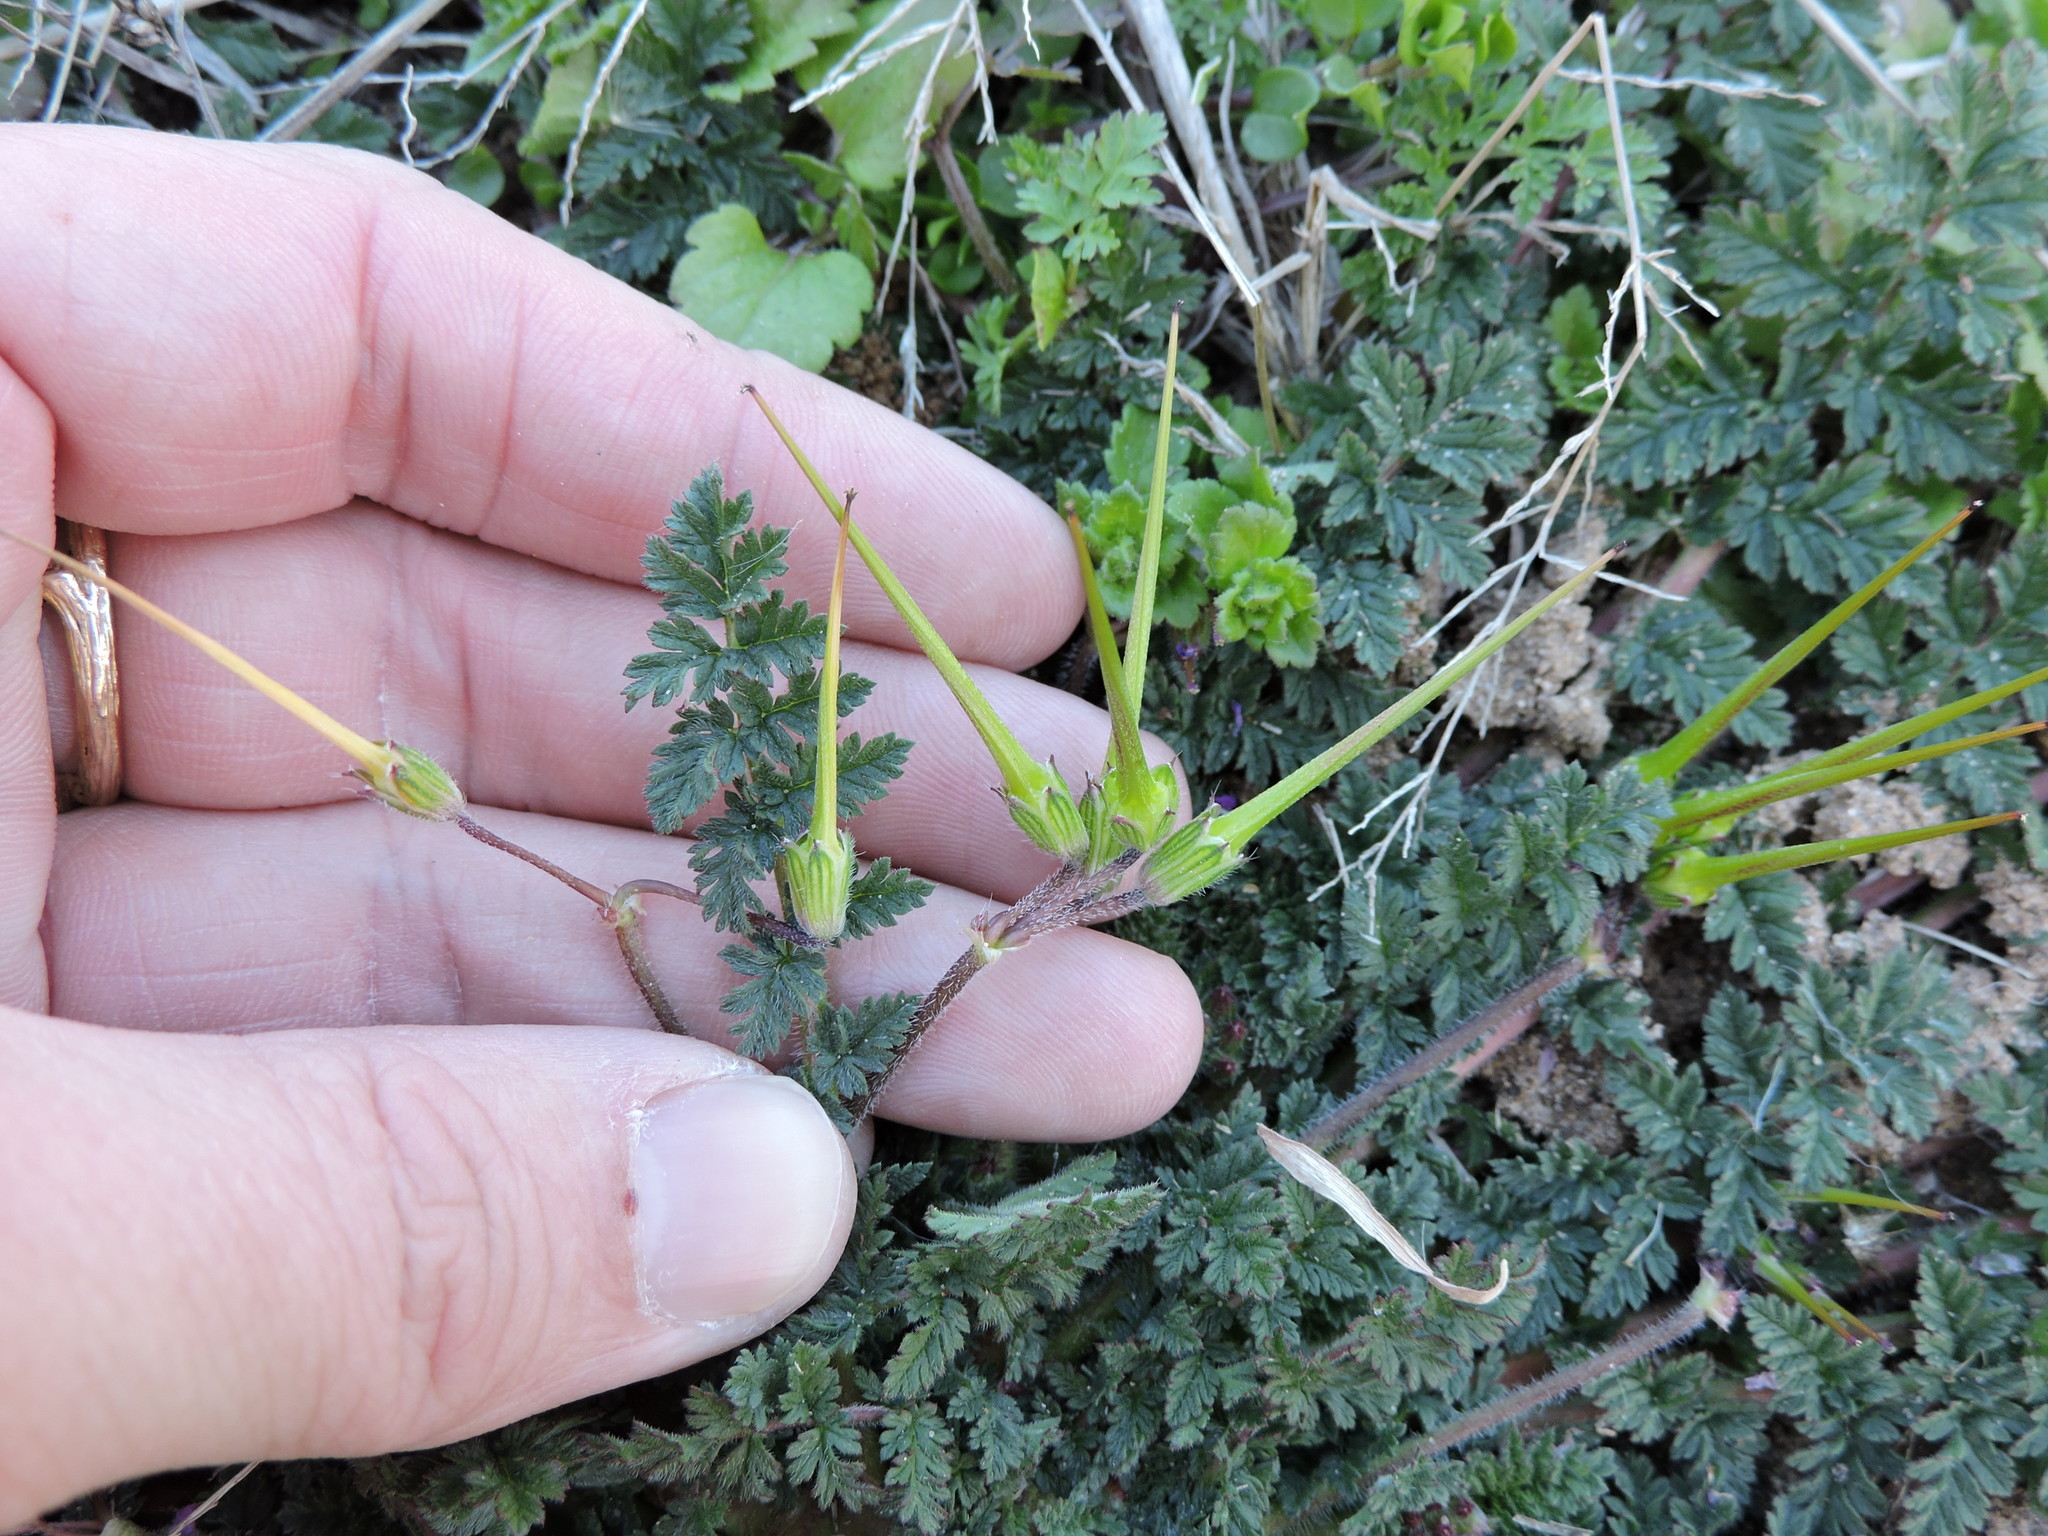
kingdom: Plantae
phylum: Tracheophyta
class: Magnoliopsida
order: Geraniales
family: Geraniaceae
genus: Erodium
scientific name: Erodium cicutarium
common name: Common stork's-bill
